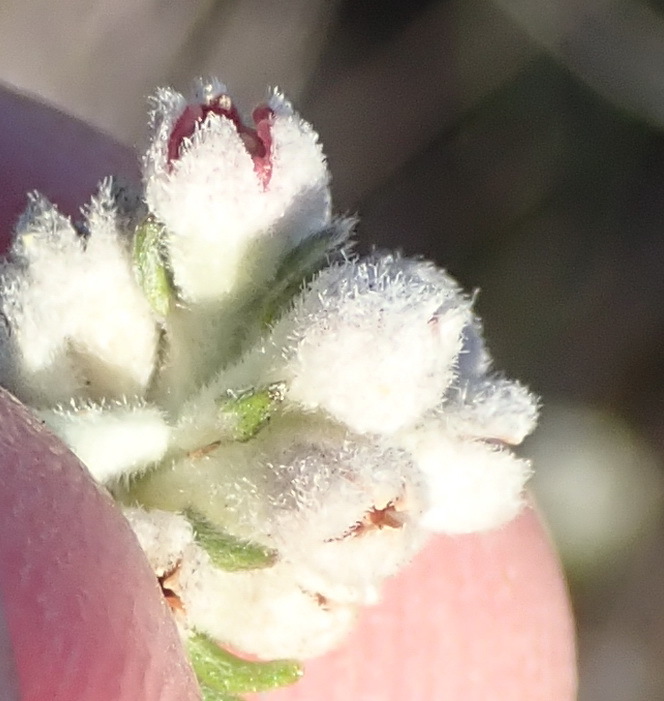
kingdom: Plantae
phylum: Tracheophyta
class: Magnoliopsida
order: Rosales
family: Rhamnaceae
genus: Phylica
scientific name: Phylica purpurea
